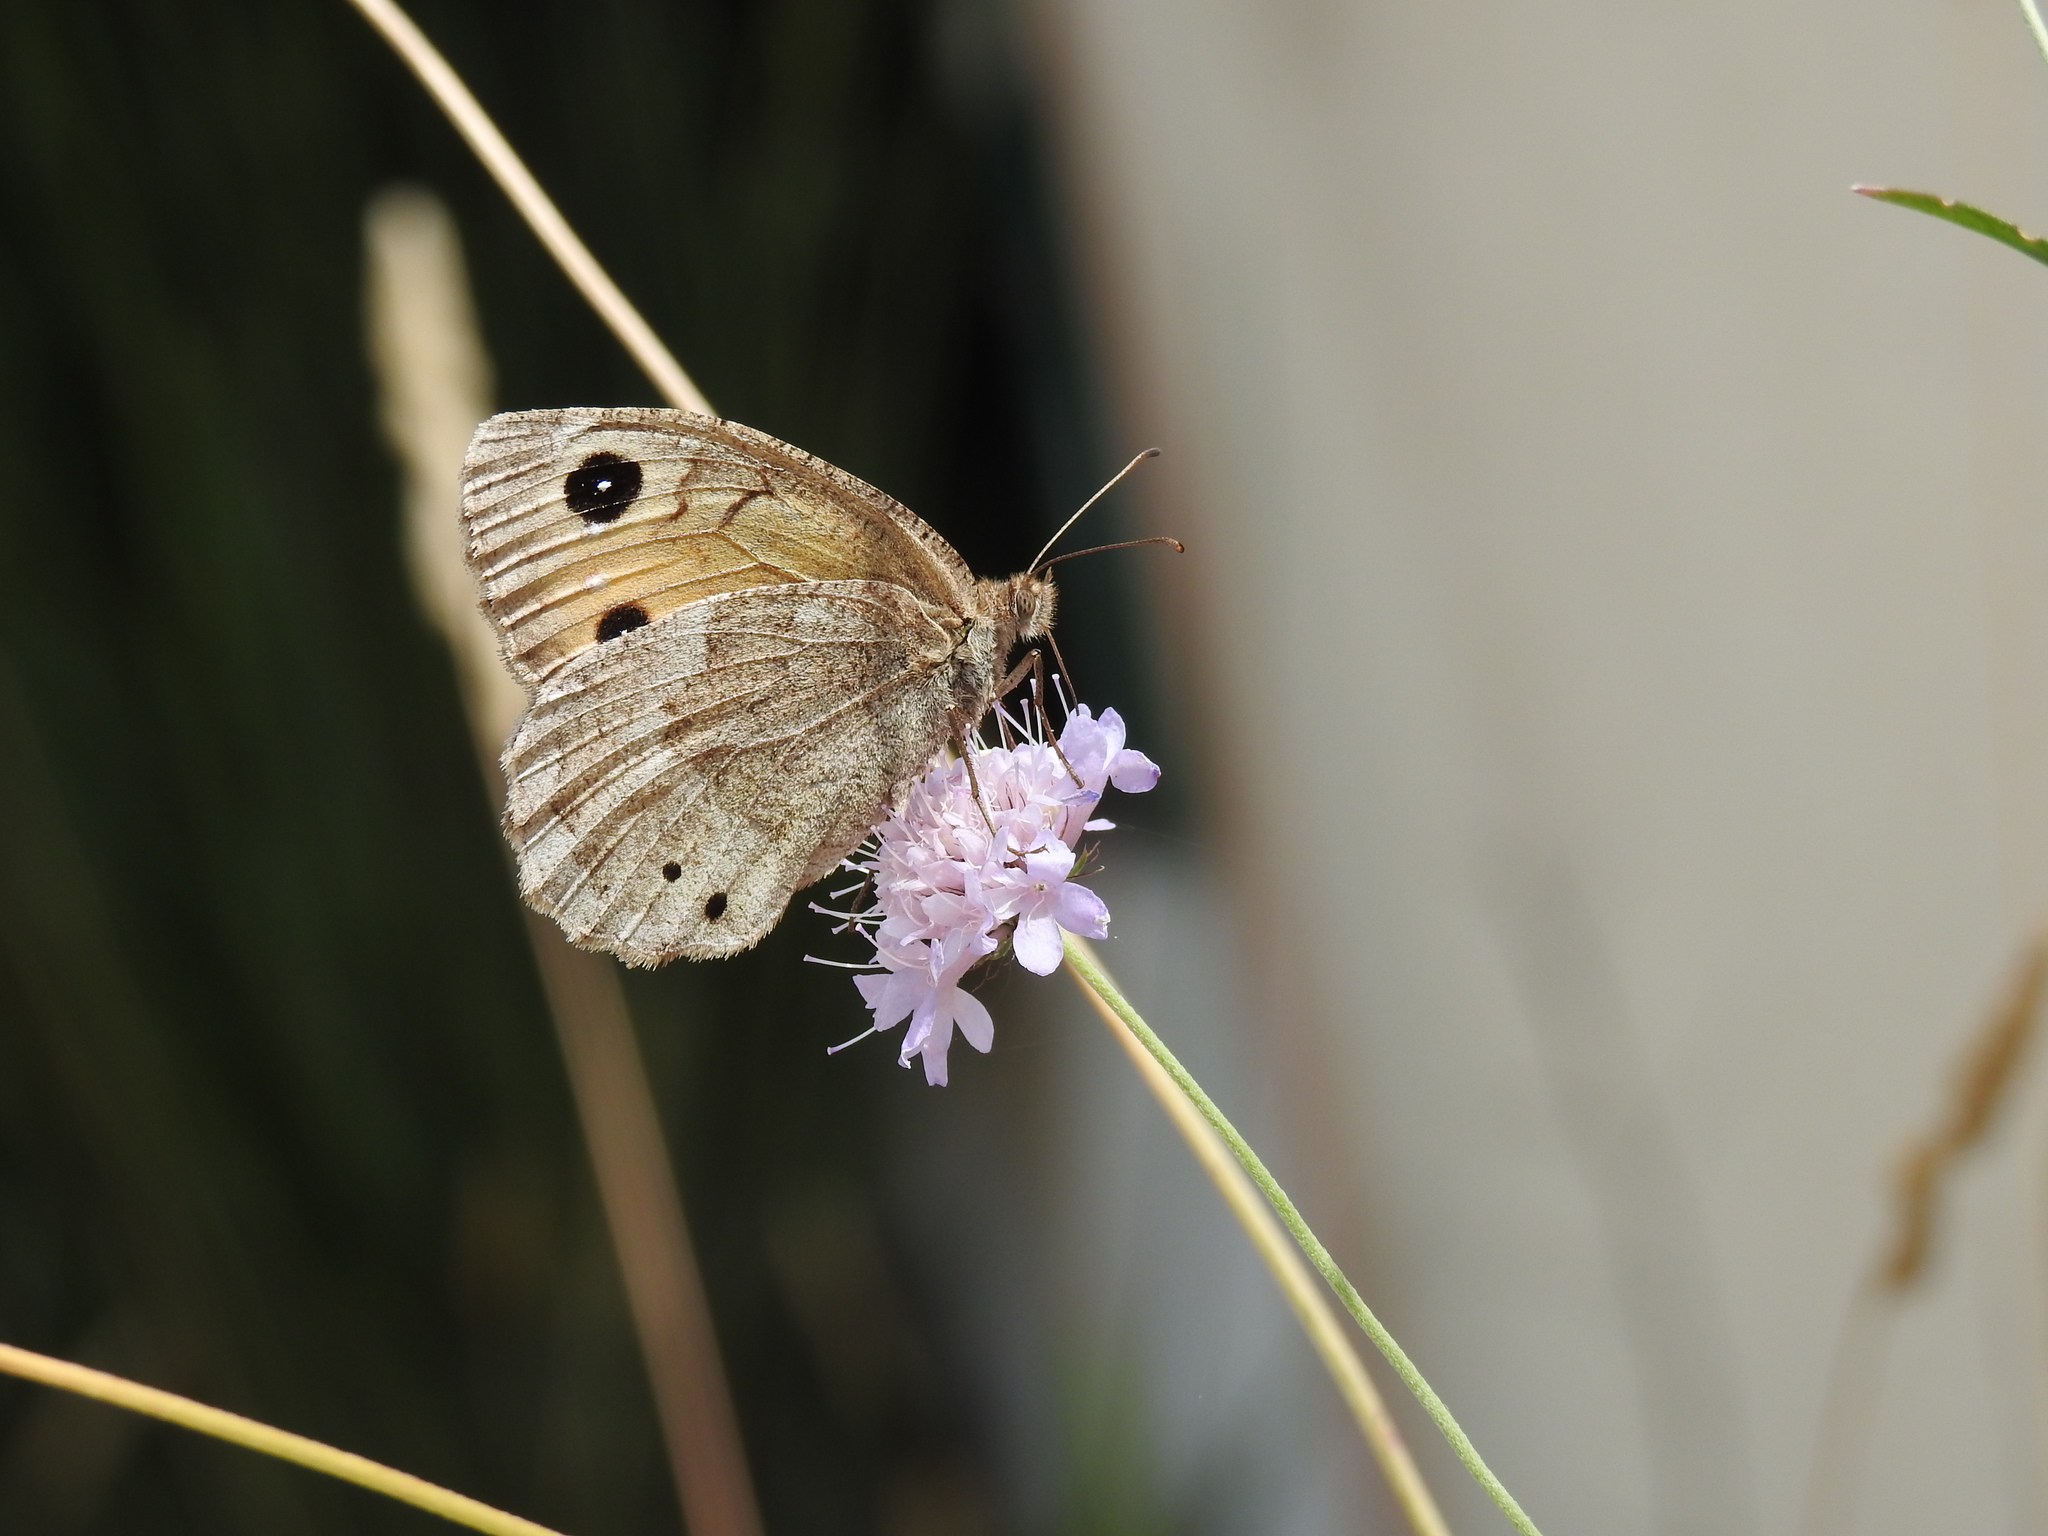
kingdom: Animalia
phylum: Arthropoda
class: Insecta
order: Lepidoptera
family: Nymphalidae
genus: Satyrus
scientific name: Satyrus ferula
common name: Great sooty satyr
